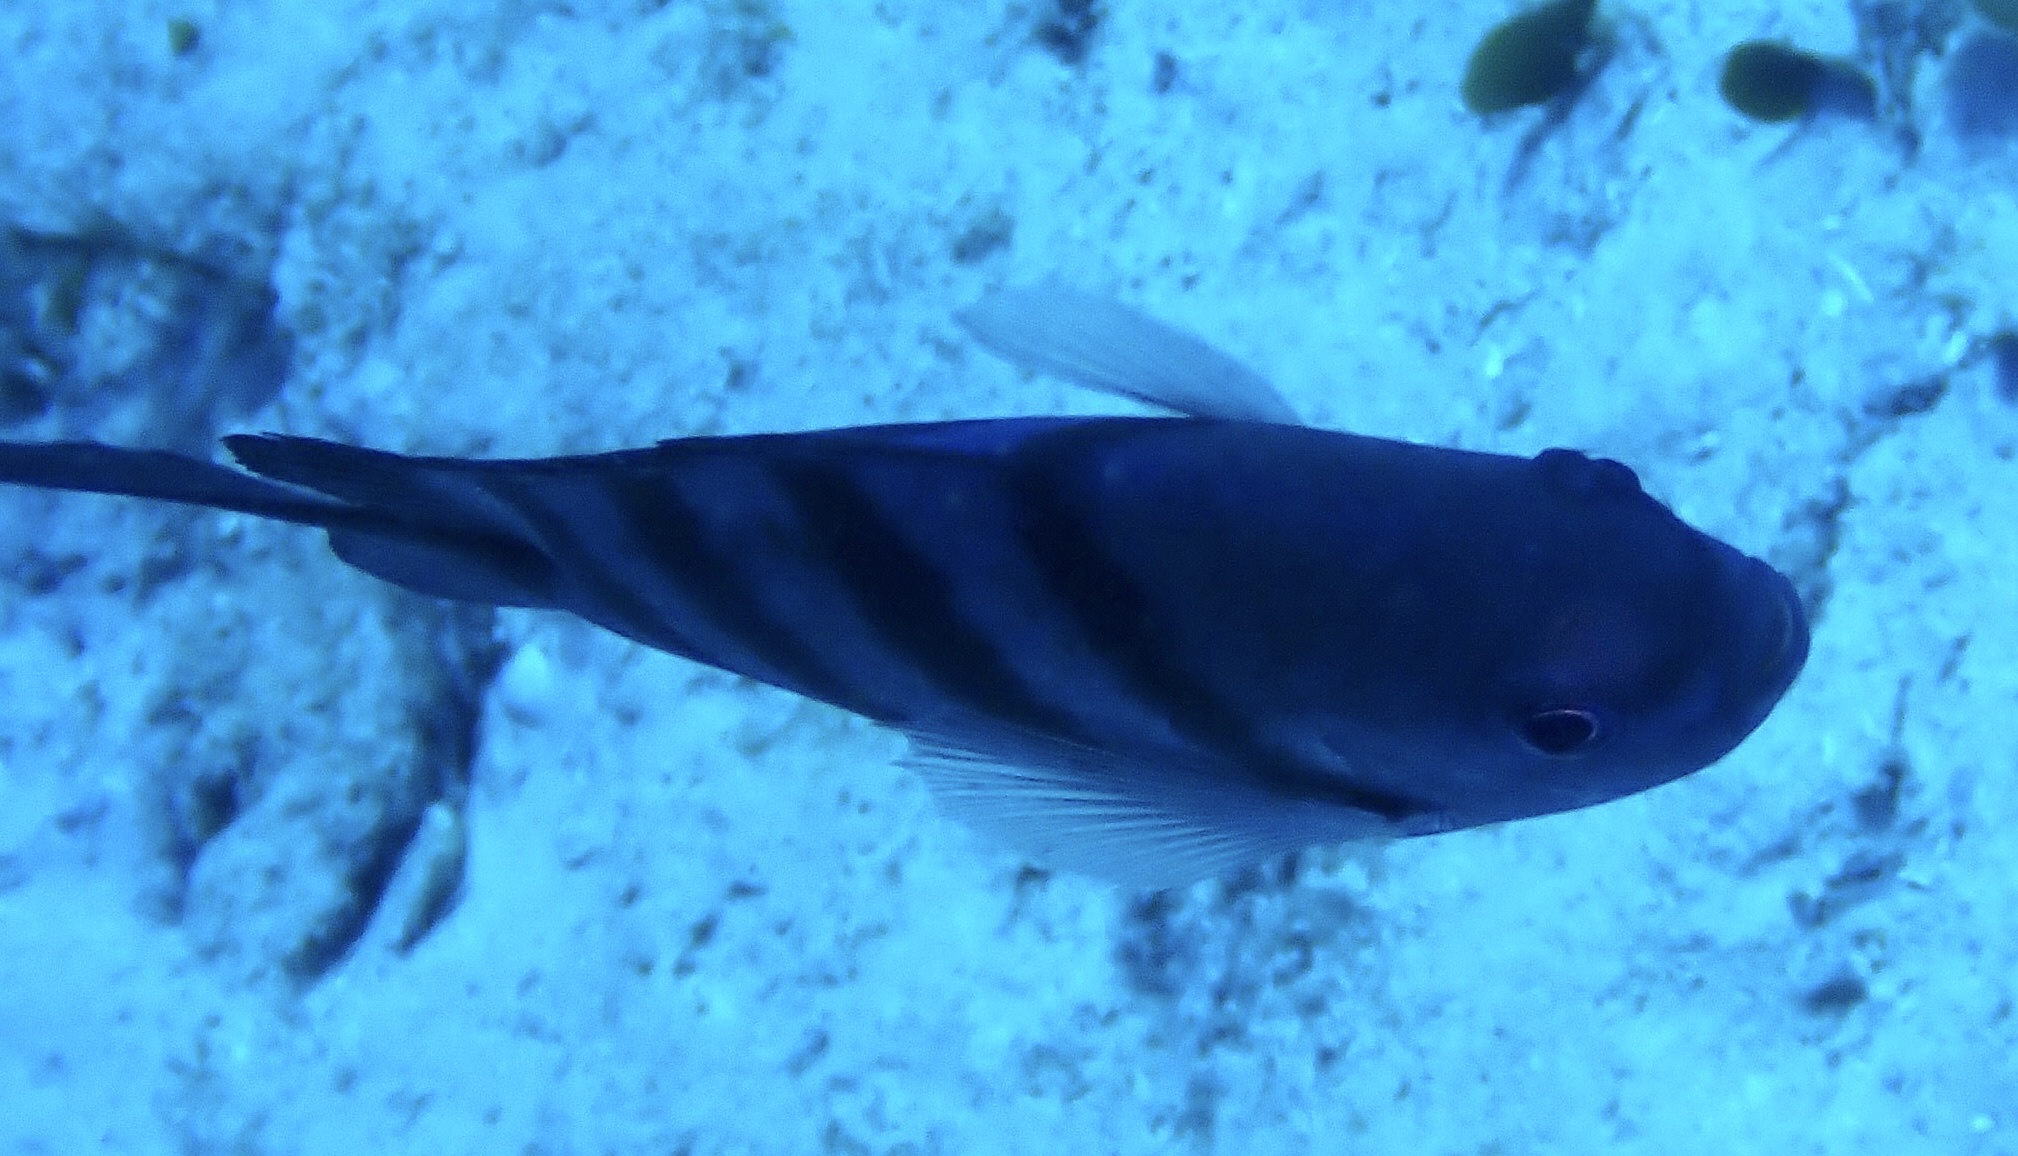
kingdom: Animalia
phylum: Chordata
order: Perciformes
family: Pomacentridae
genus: Abudefduf
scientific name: Abudefduf saxatilis
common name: Sergeant major
